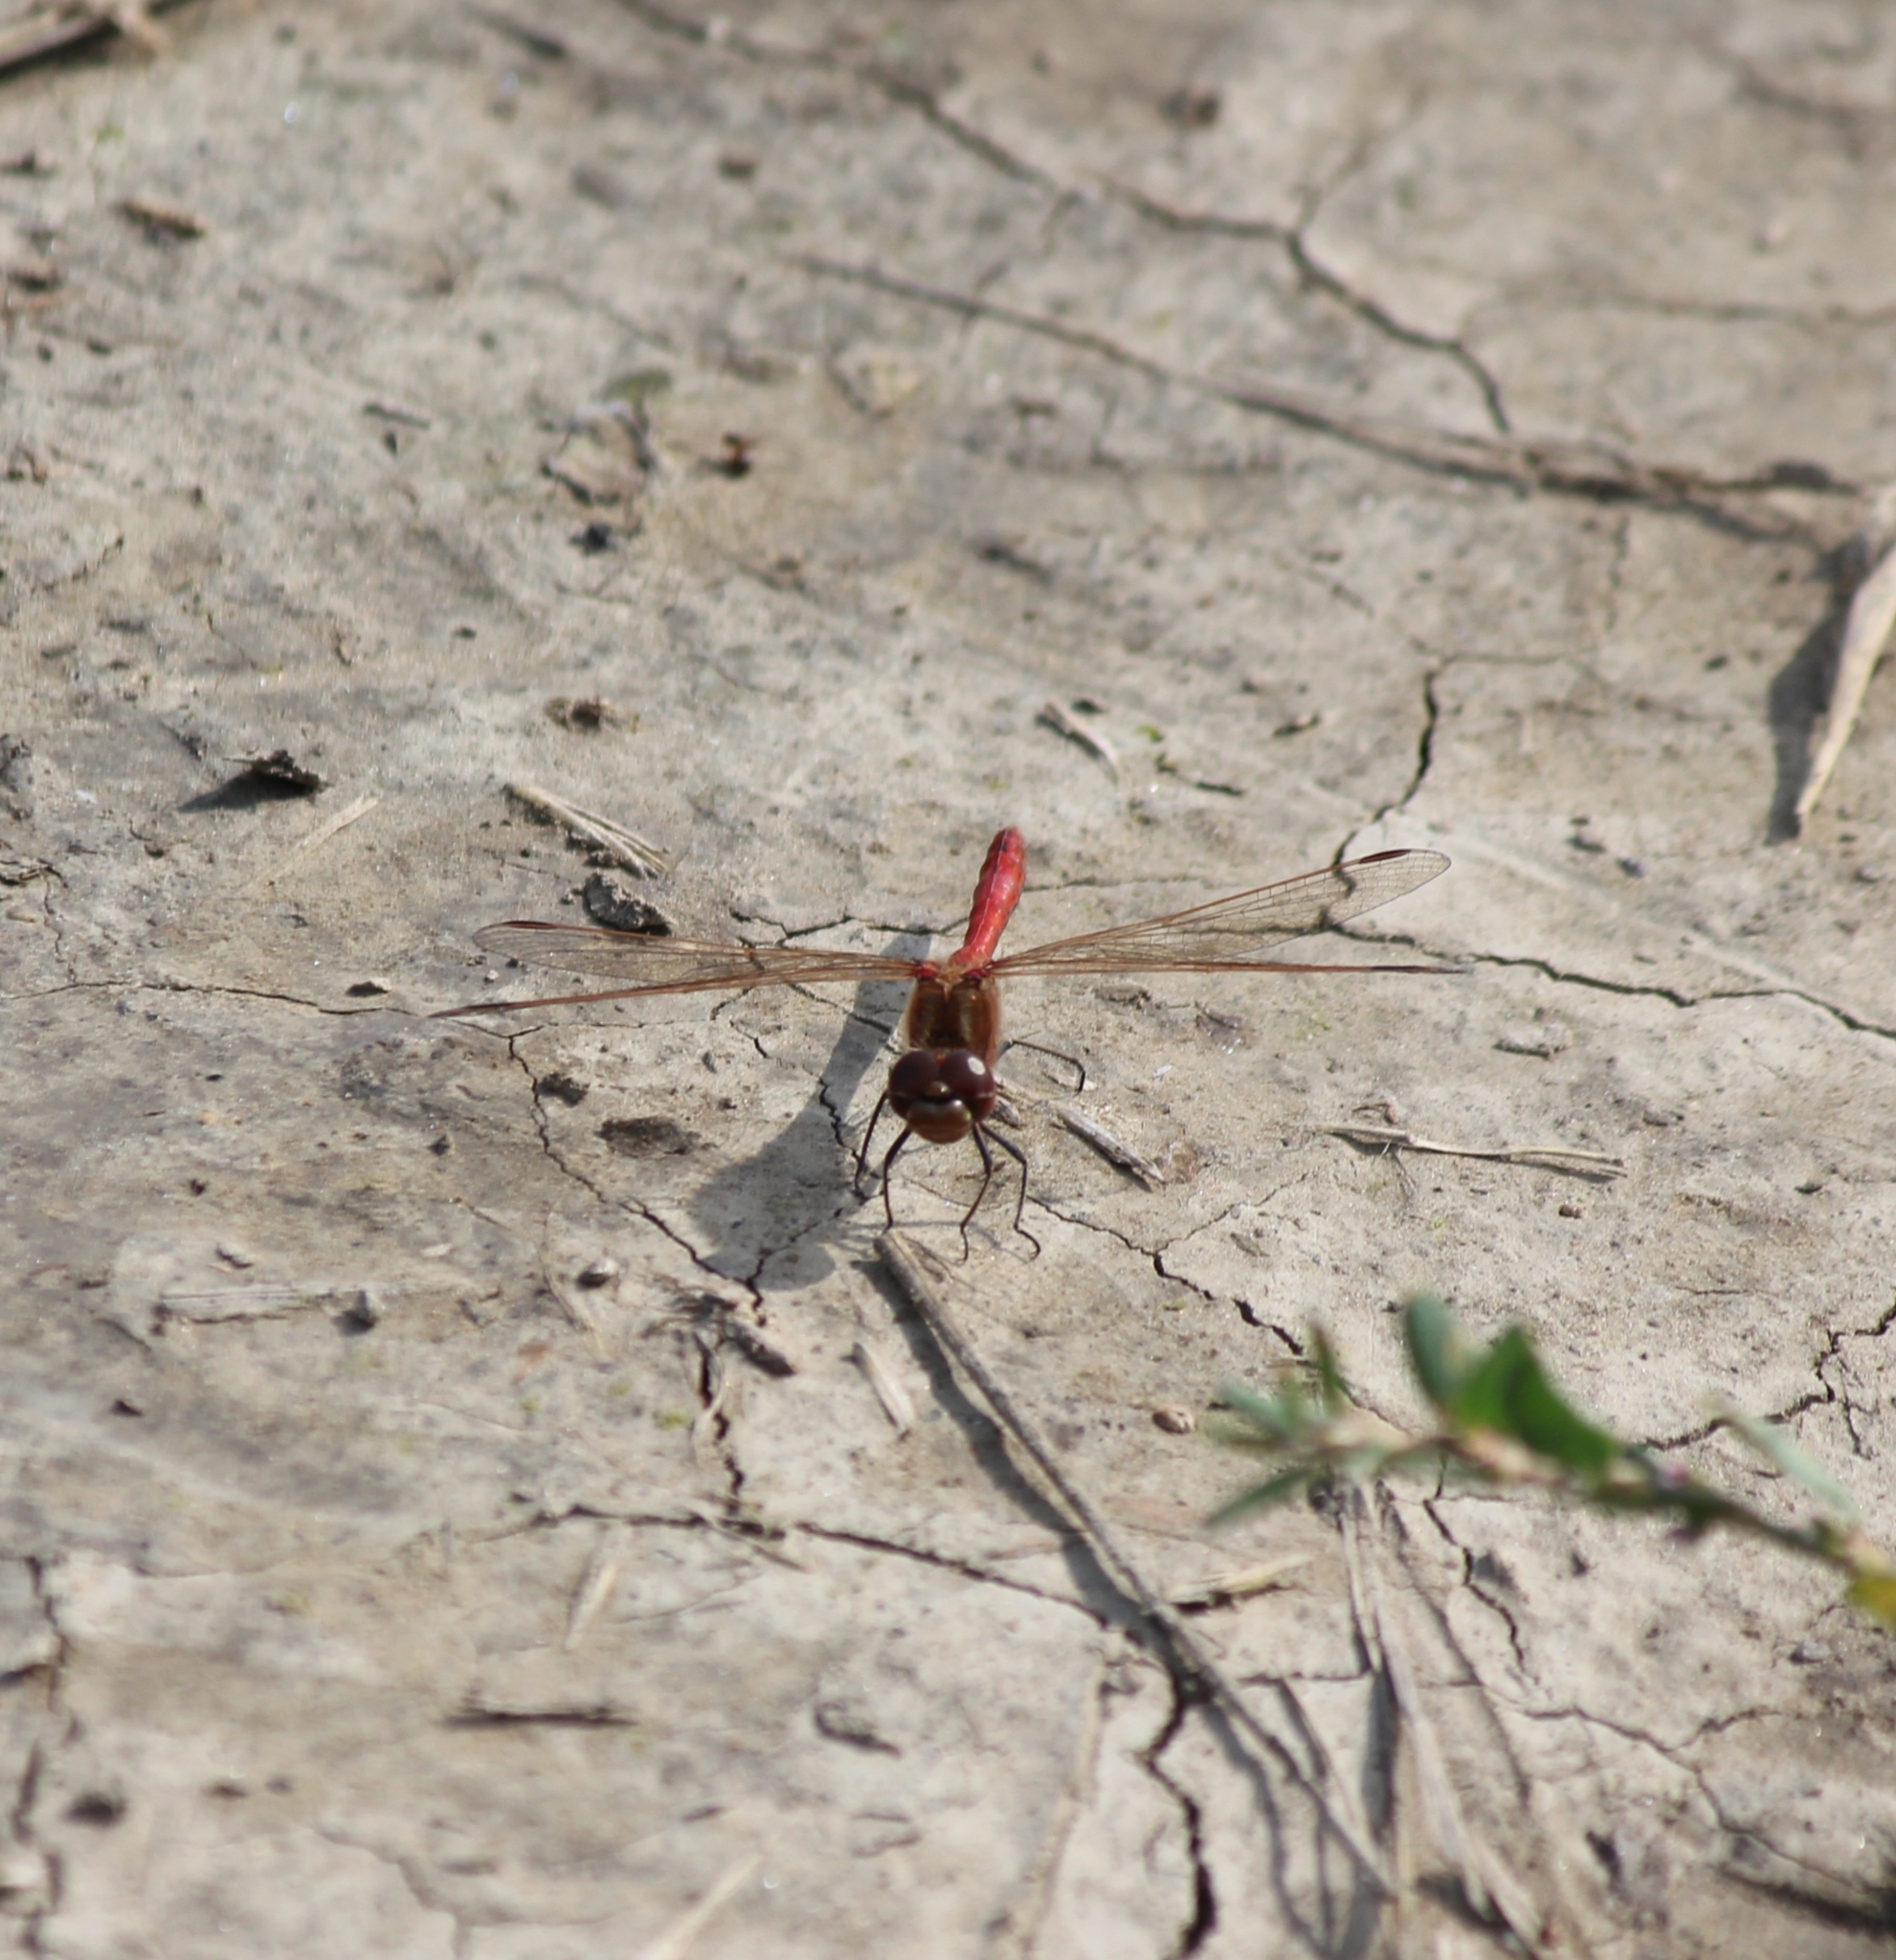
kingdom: Animalia
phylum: Arthropoda
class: Insecta
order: Odonata
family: Libellulidae
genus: Sympetrum
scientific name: Sympetrum vulgatum
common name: Vagrant darter
